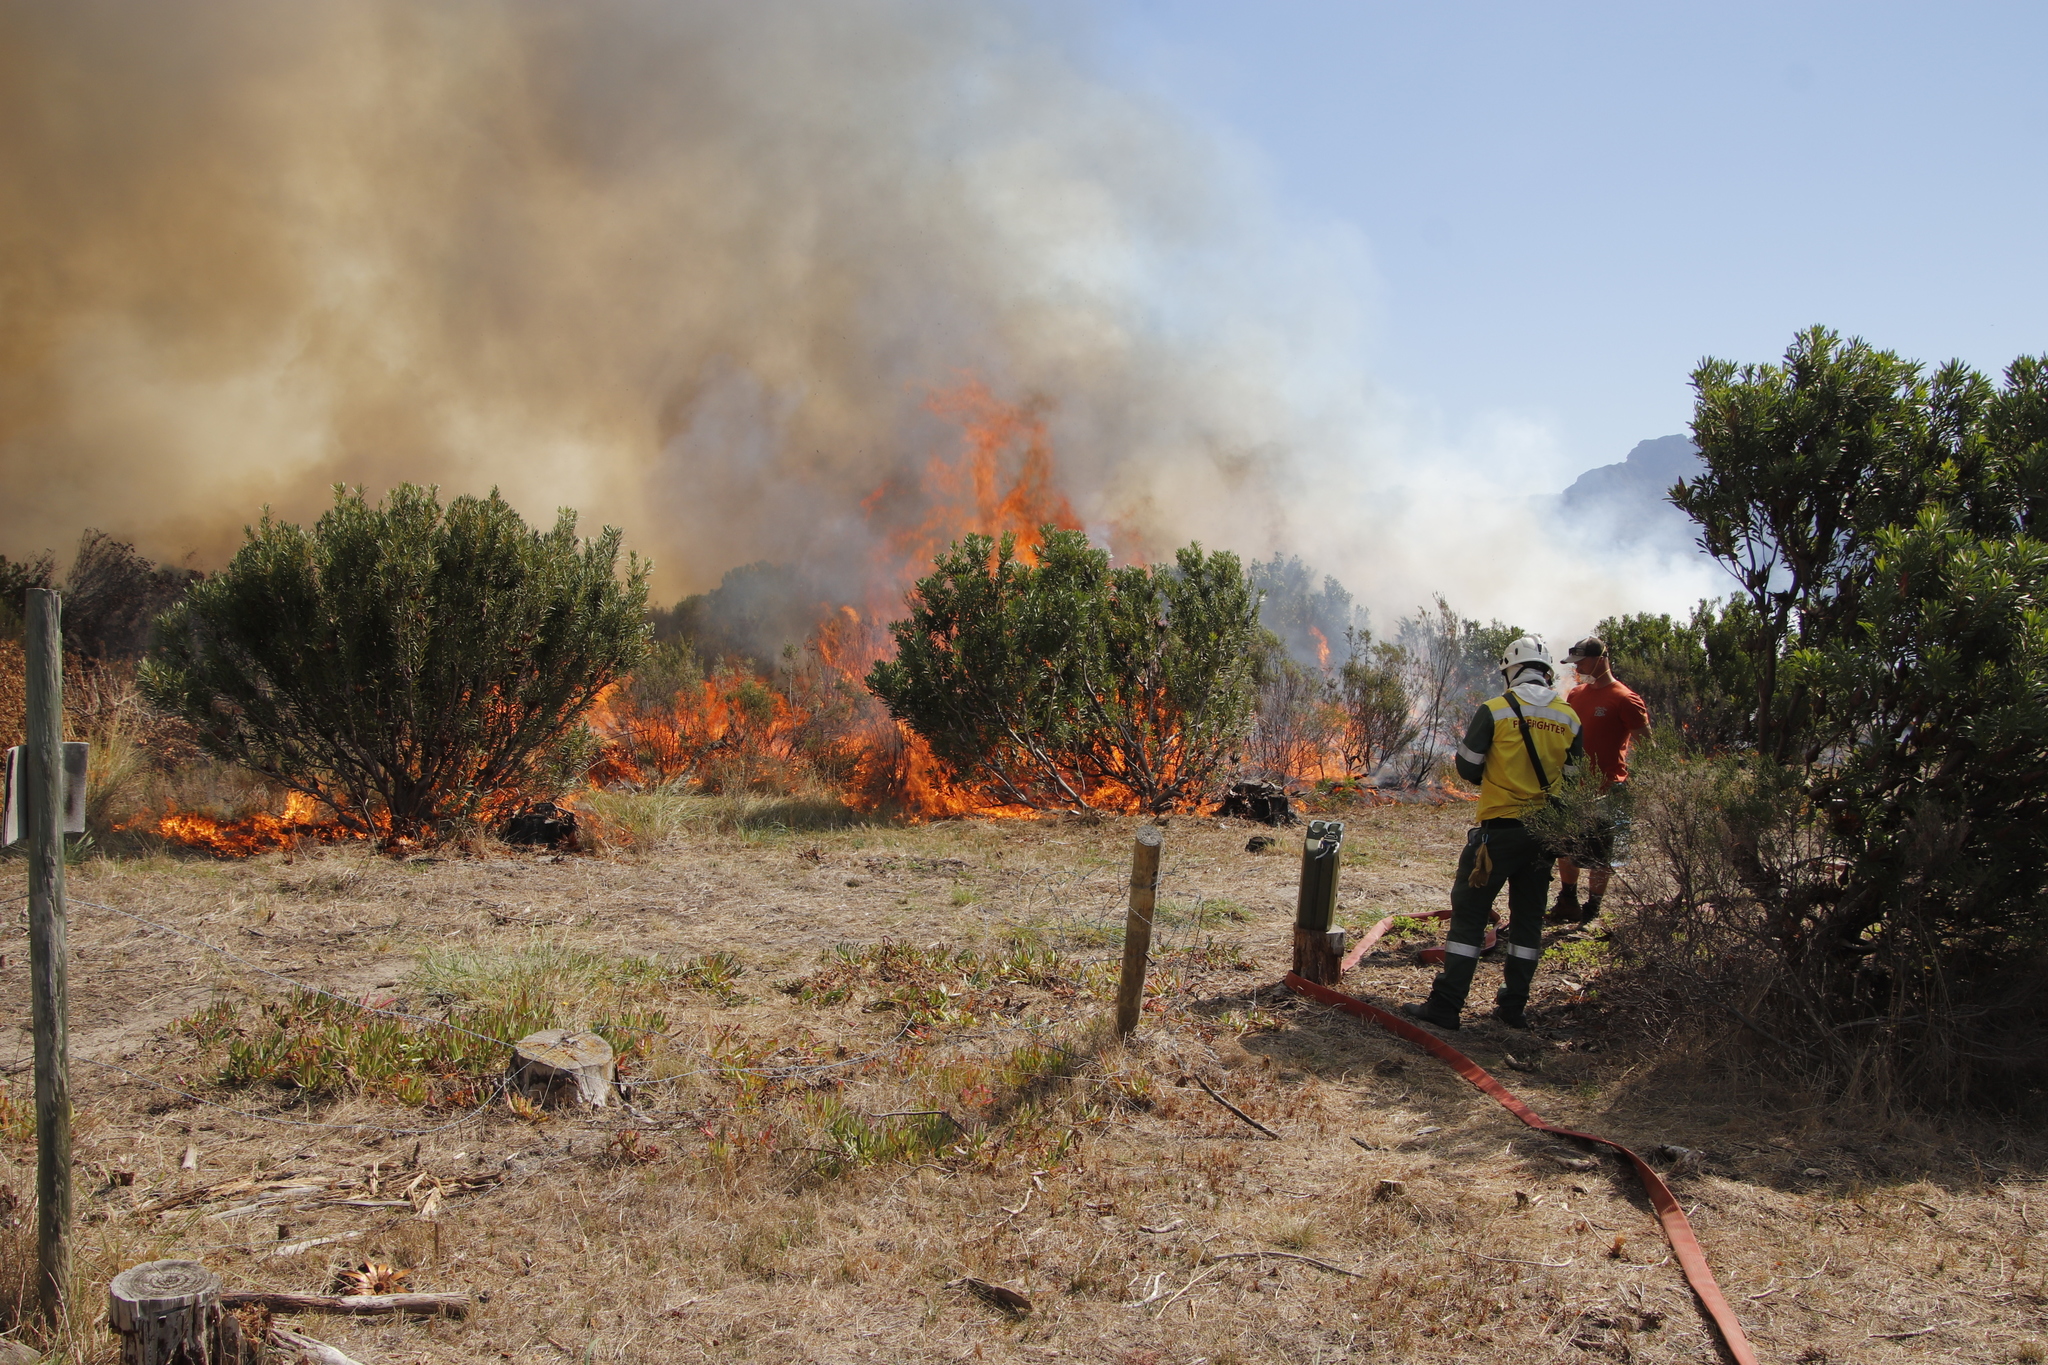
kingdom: Plantae
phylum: Tracheophyta
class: Magnoliopsida
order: Proteales
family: Proteaceae
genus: Protea
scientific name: Protea repens
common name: Sugarbush
